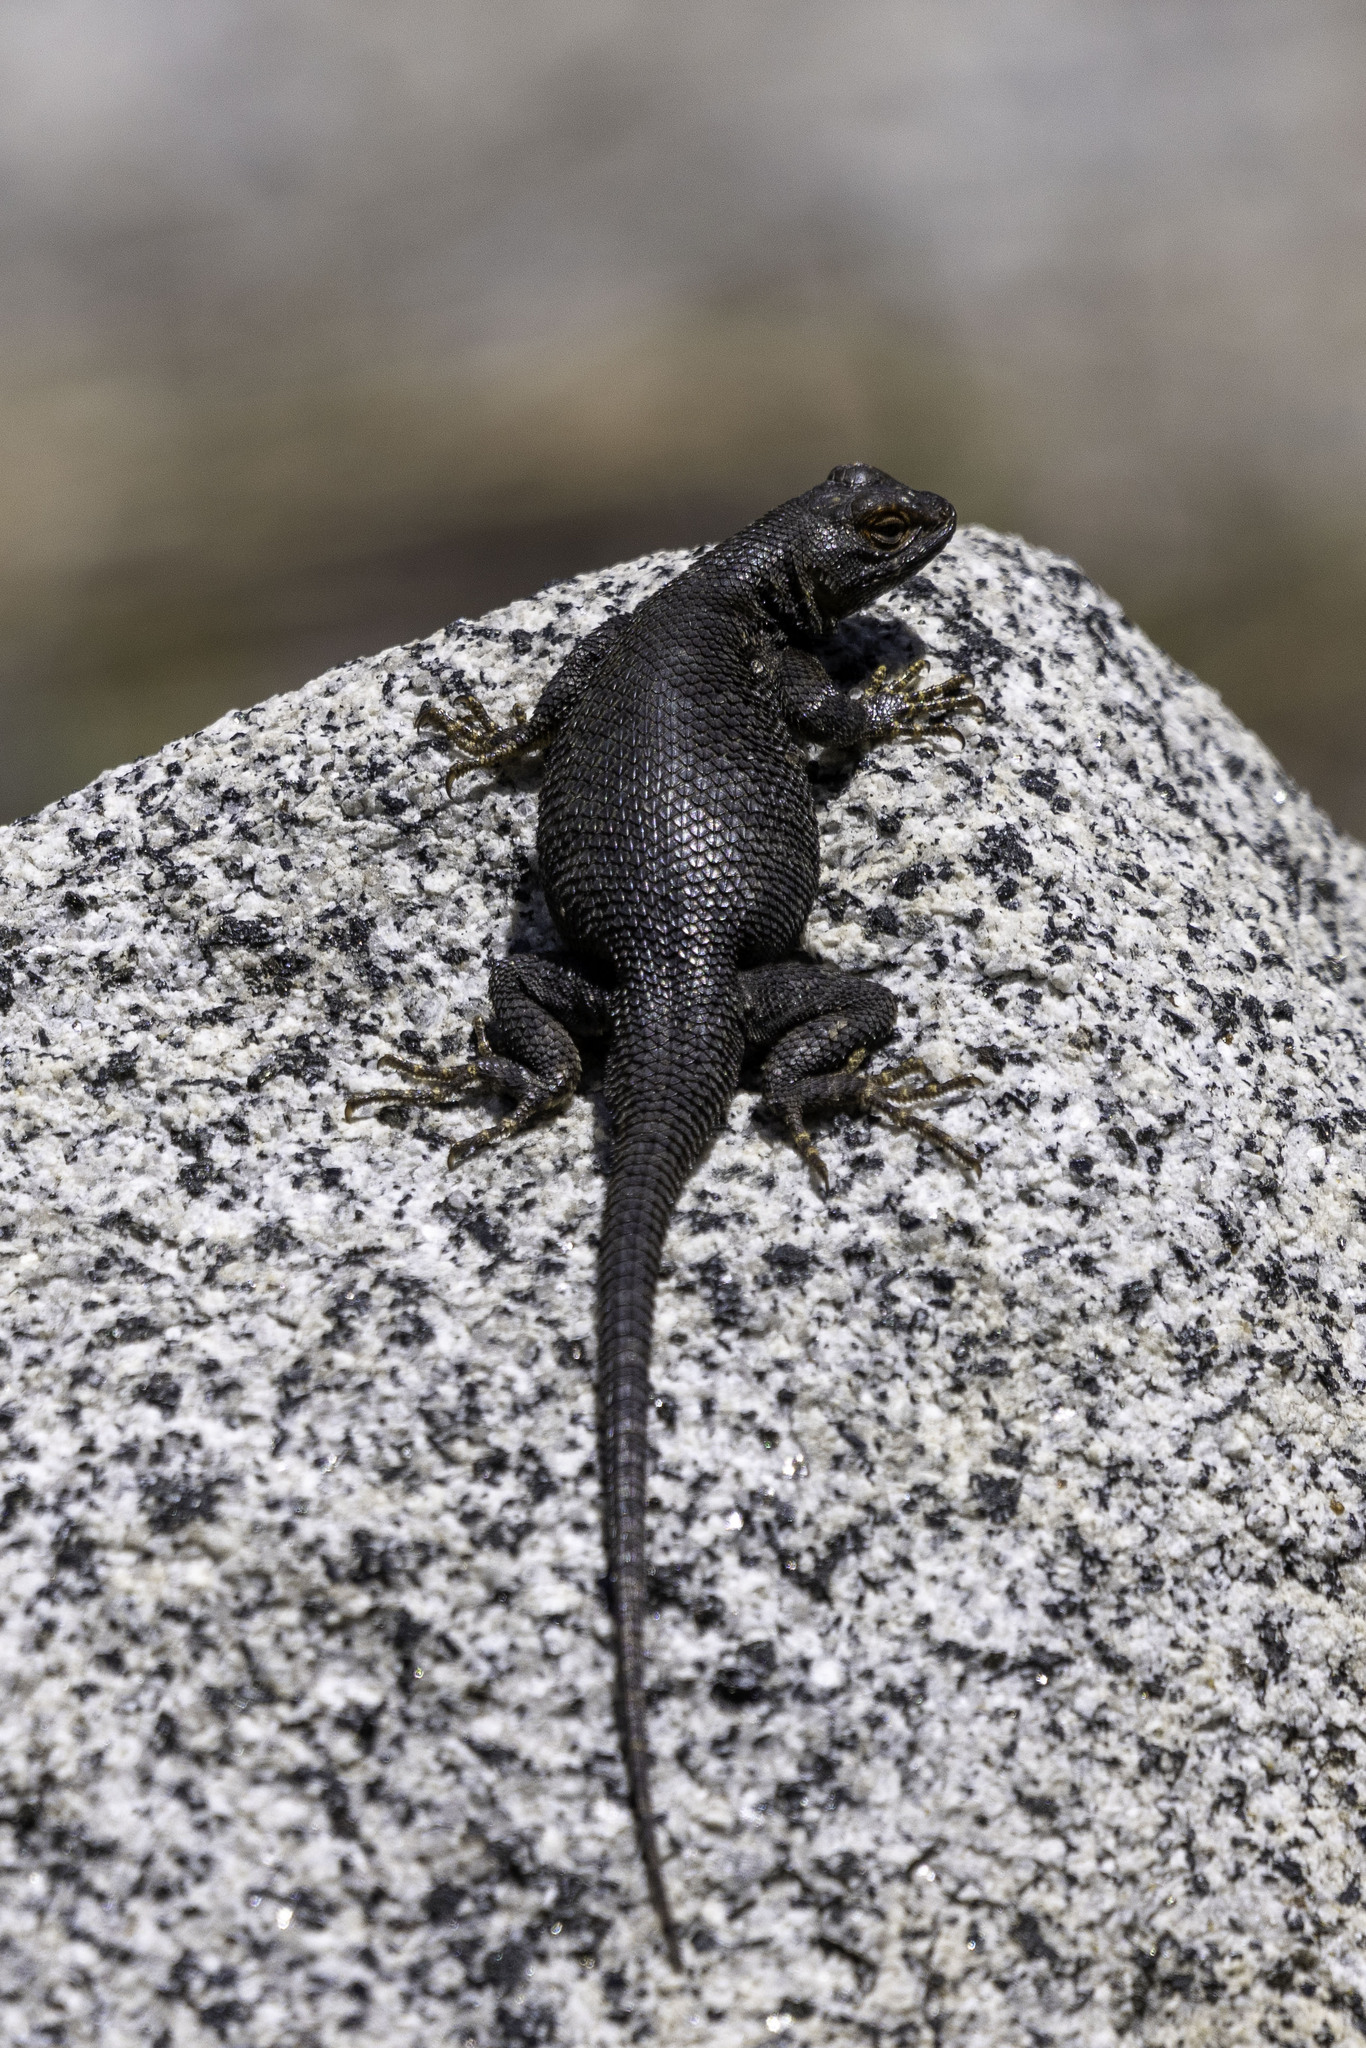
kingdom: Animalia
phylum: Chordata
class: Squamata
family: Phrynosomatidae
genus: Sceloporus
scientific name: Sceloporus occidentalis
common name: Western fence lizard
